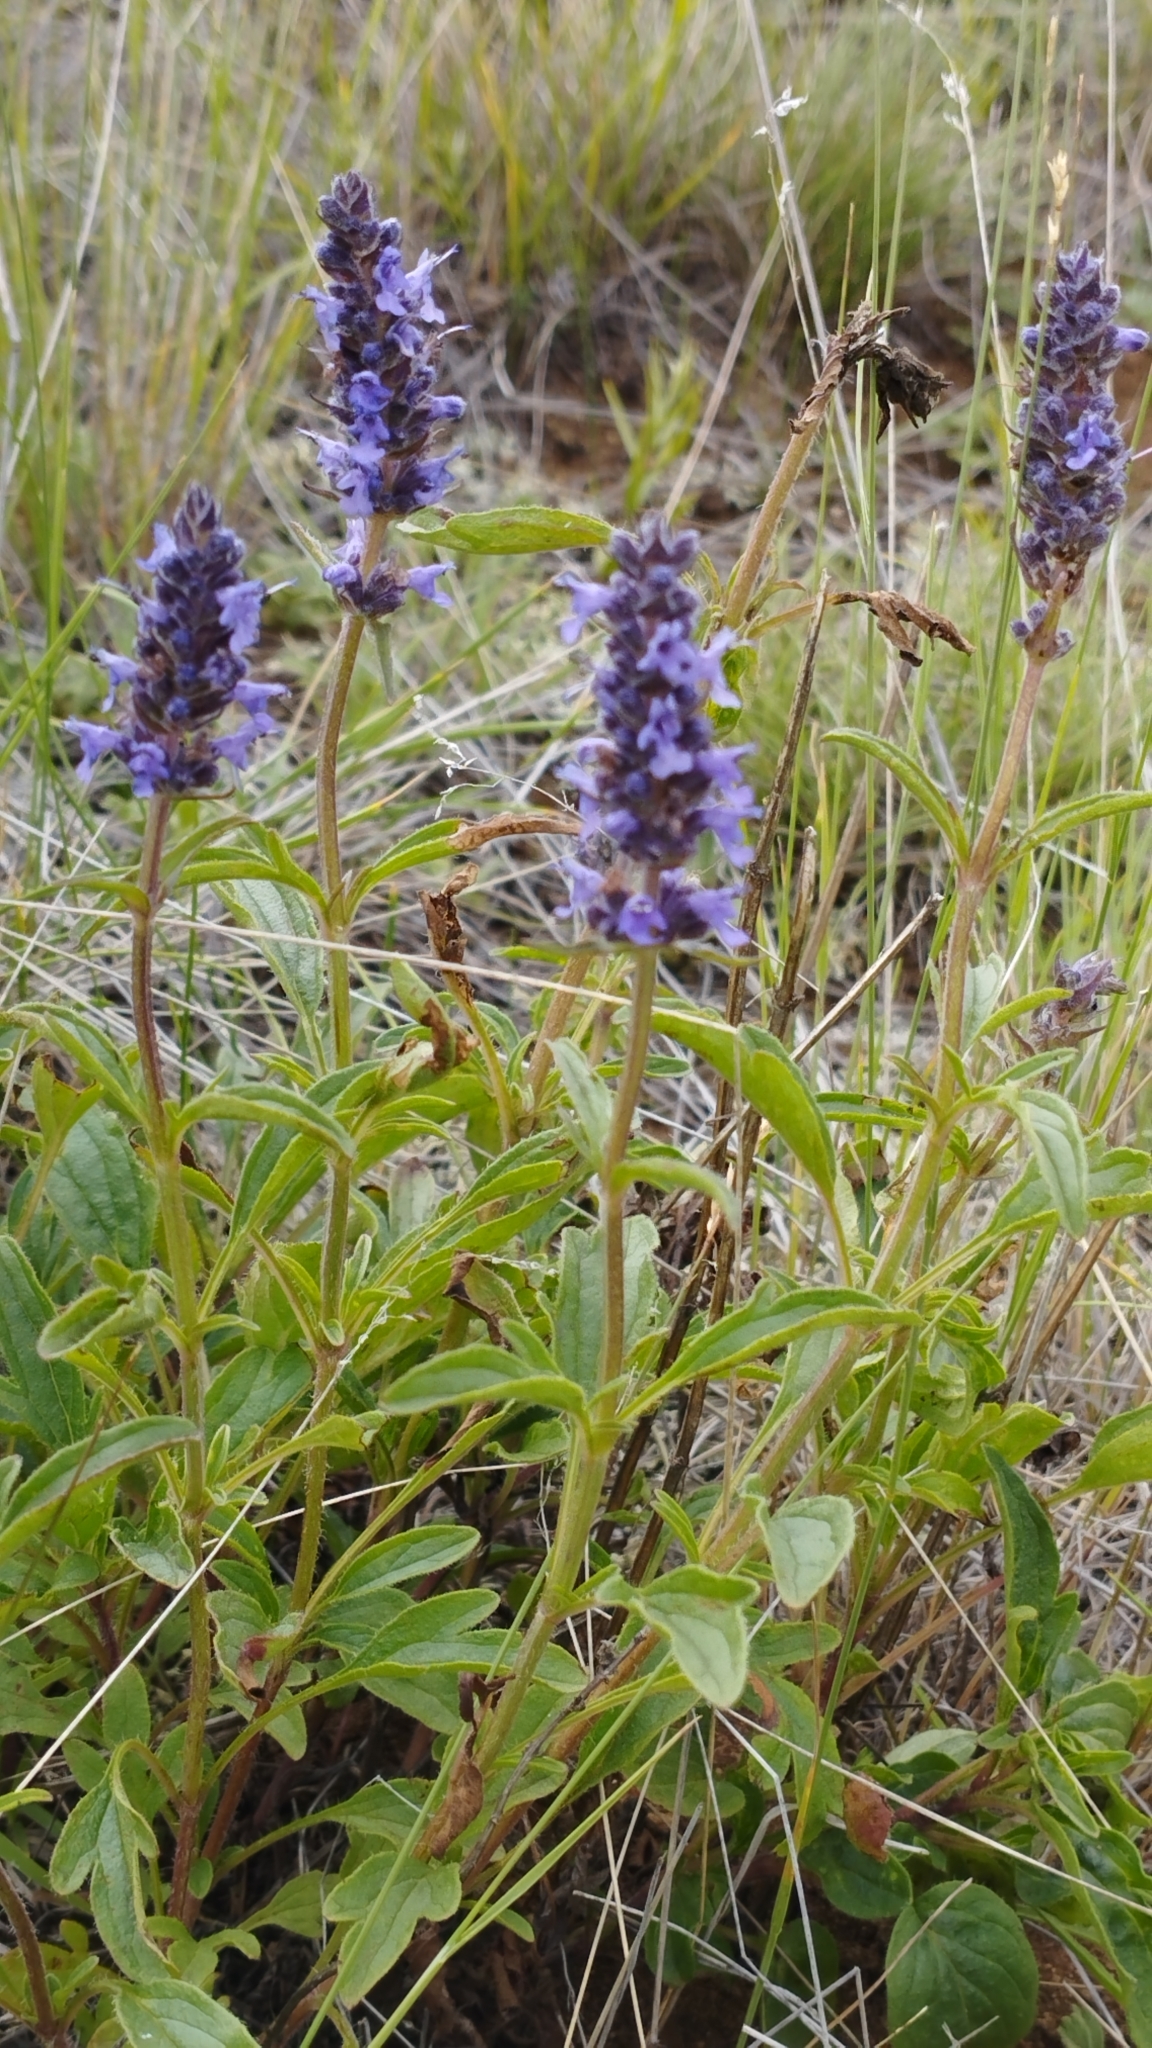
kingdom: Plantae
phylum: Tracheophyta
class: Magnoliopsida
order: Lamiales
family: Lamiaceae
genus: Nepeta
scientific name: Nepeta multifida
